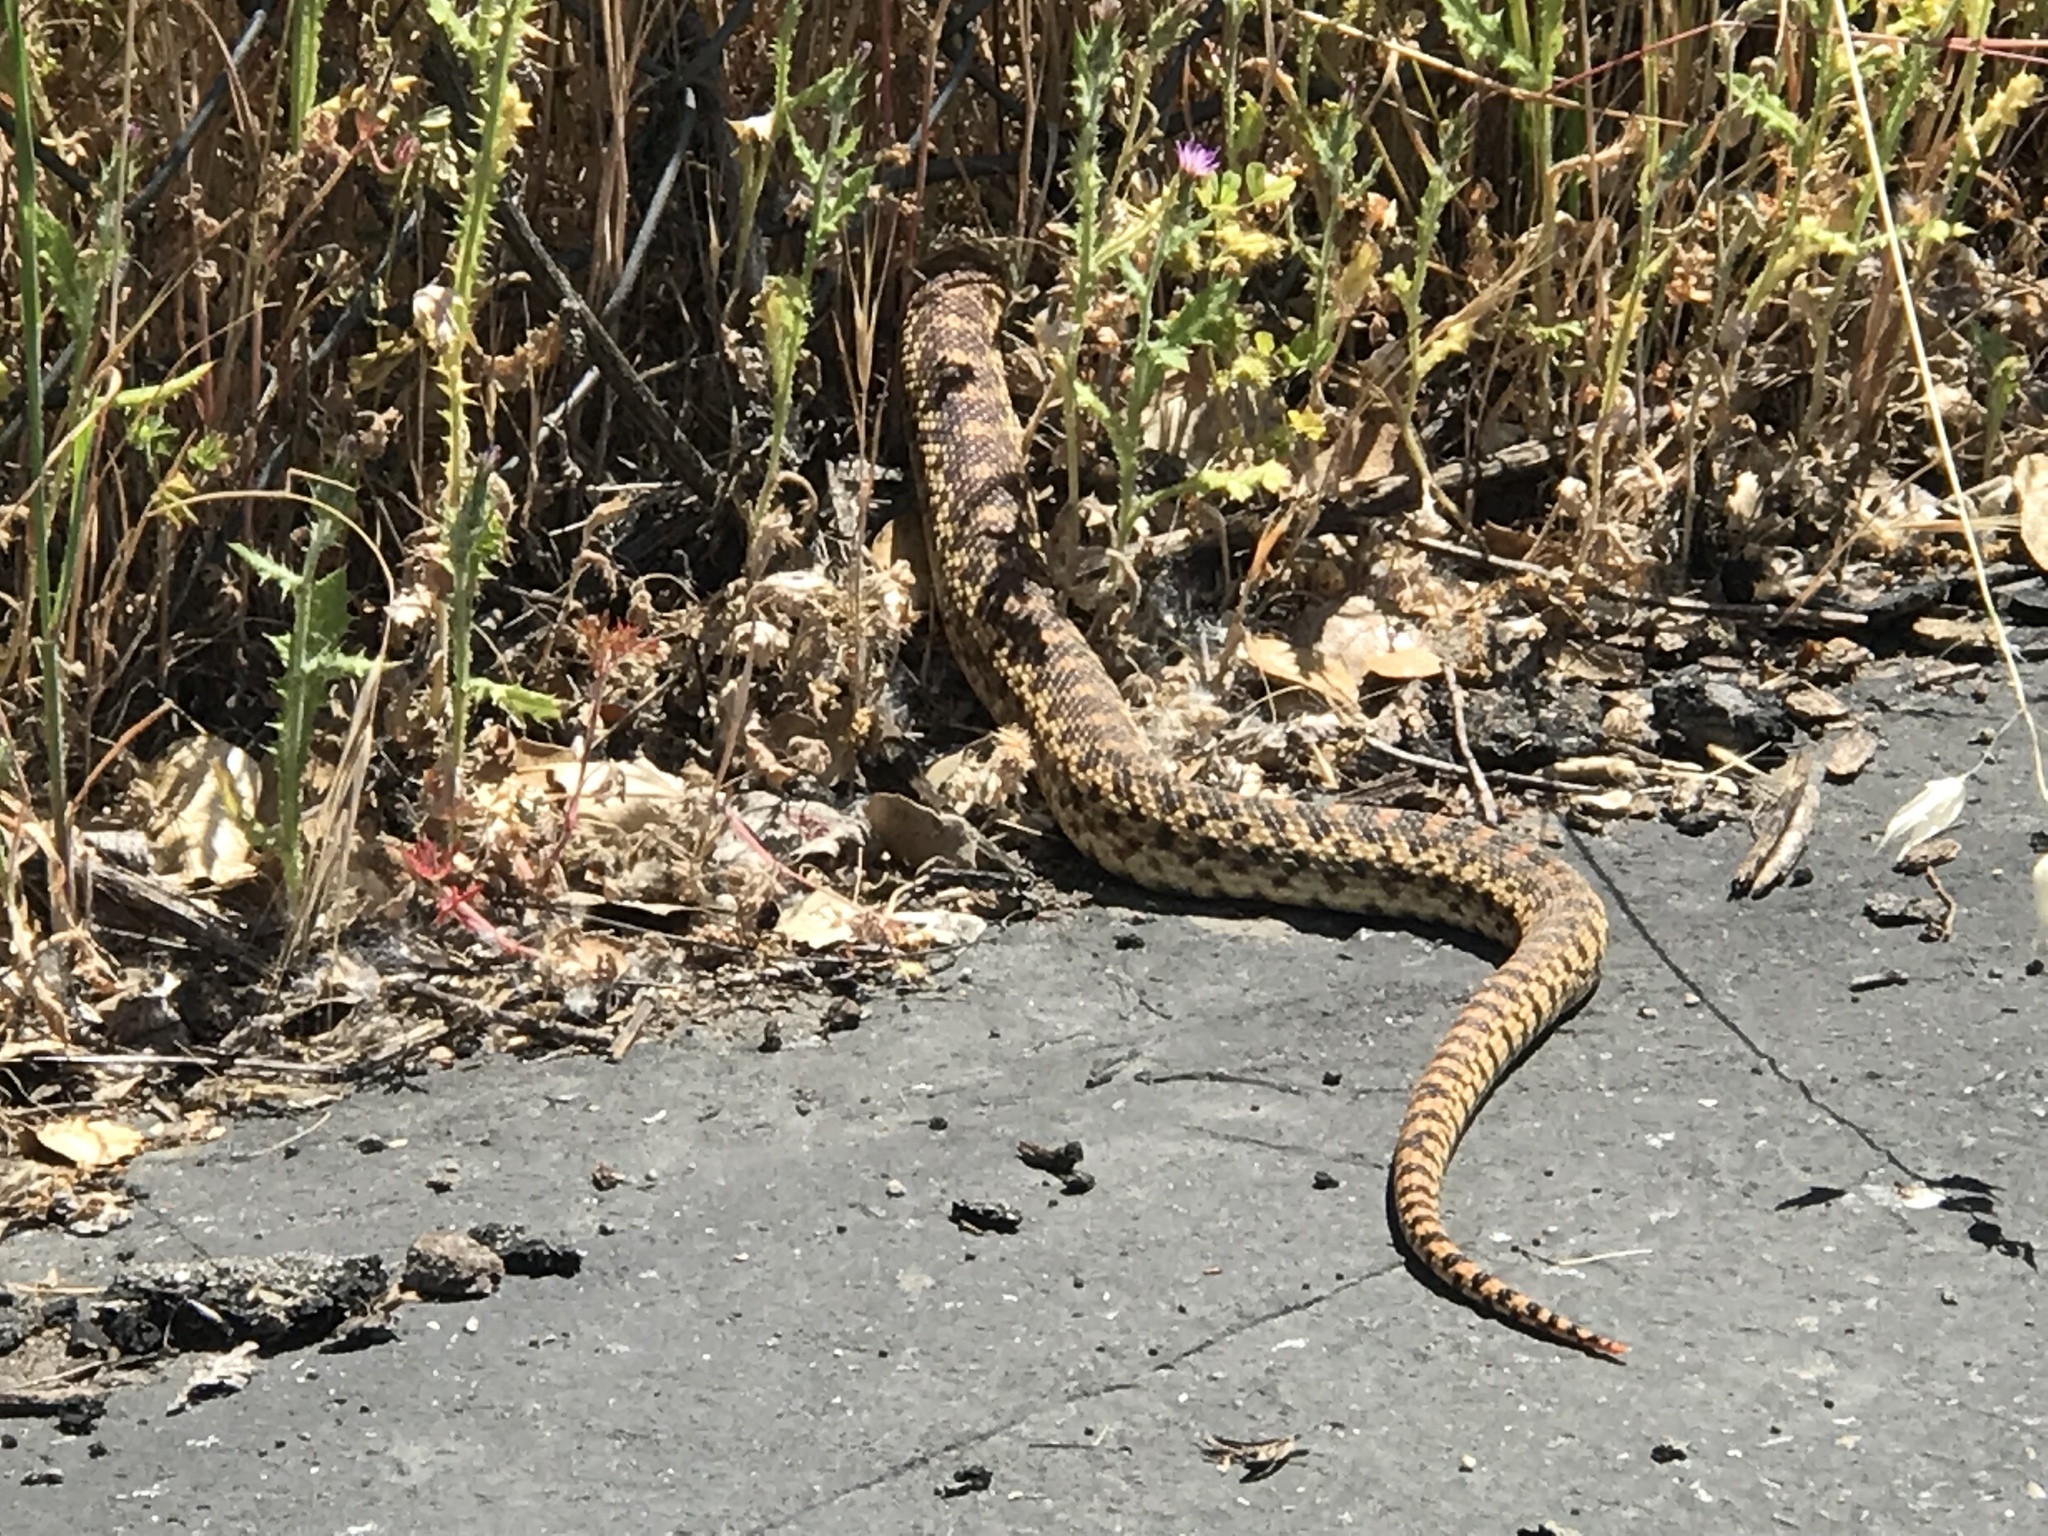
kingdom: Animalia
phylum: Chordata
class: Squamata
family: Colubridae
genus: Pituophis
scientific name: Pituophis catenifer
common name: Gopher snake
